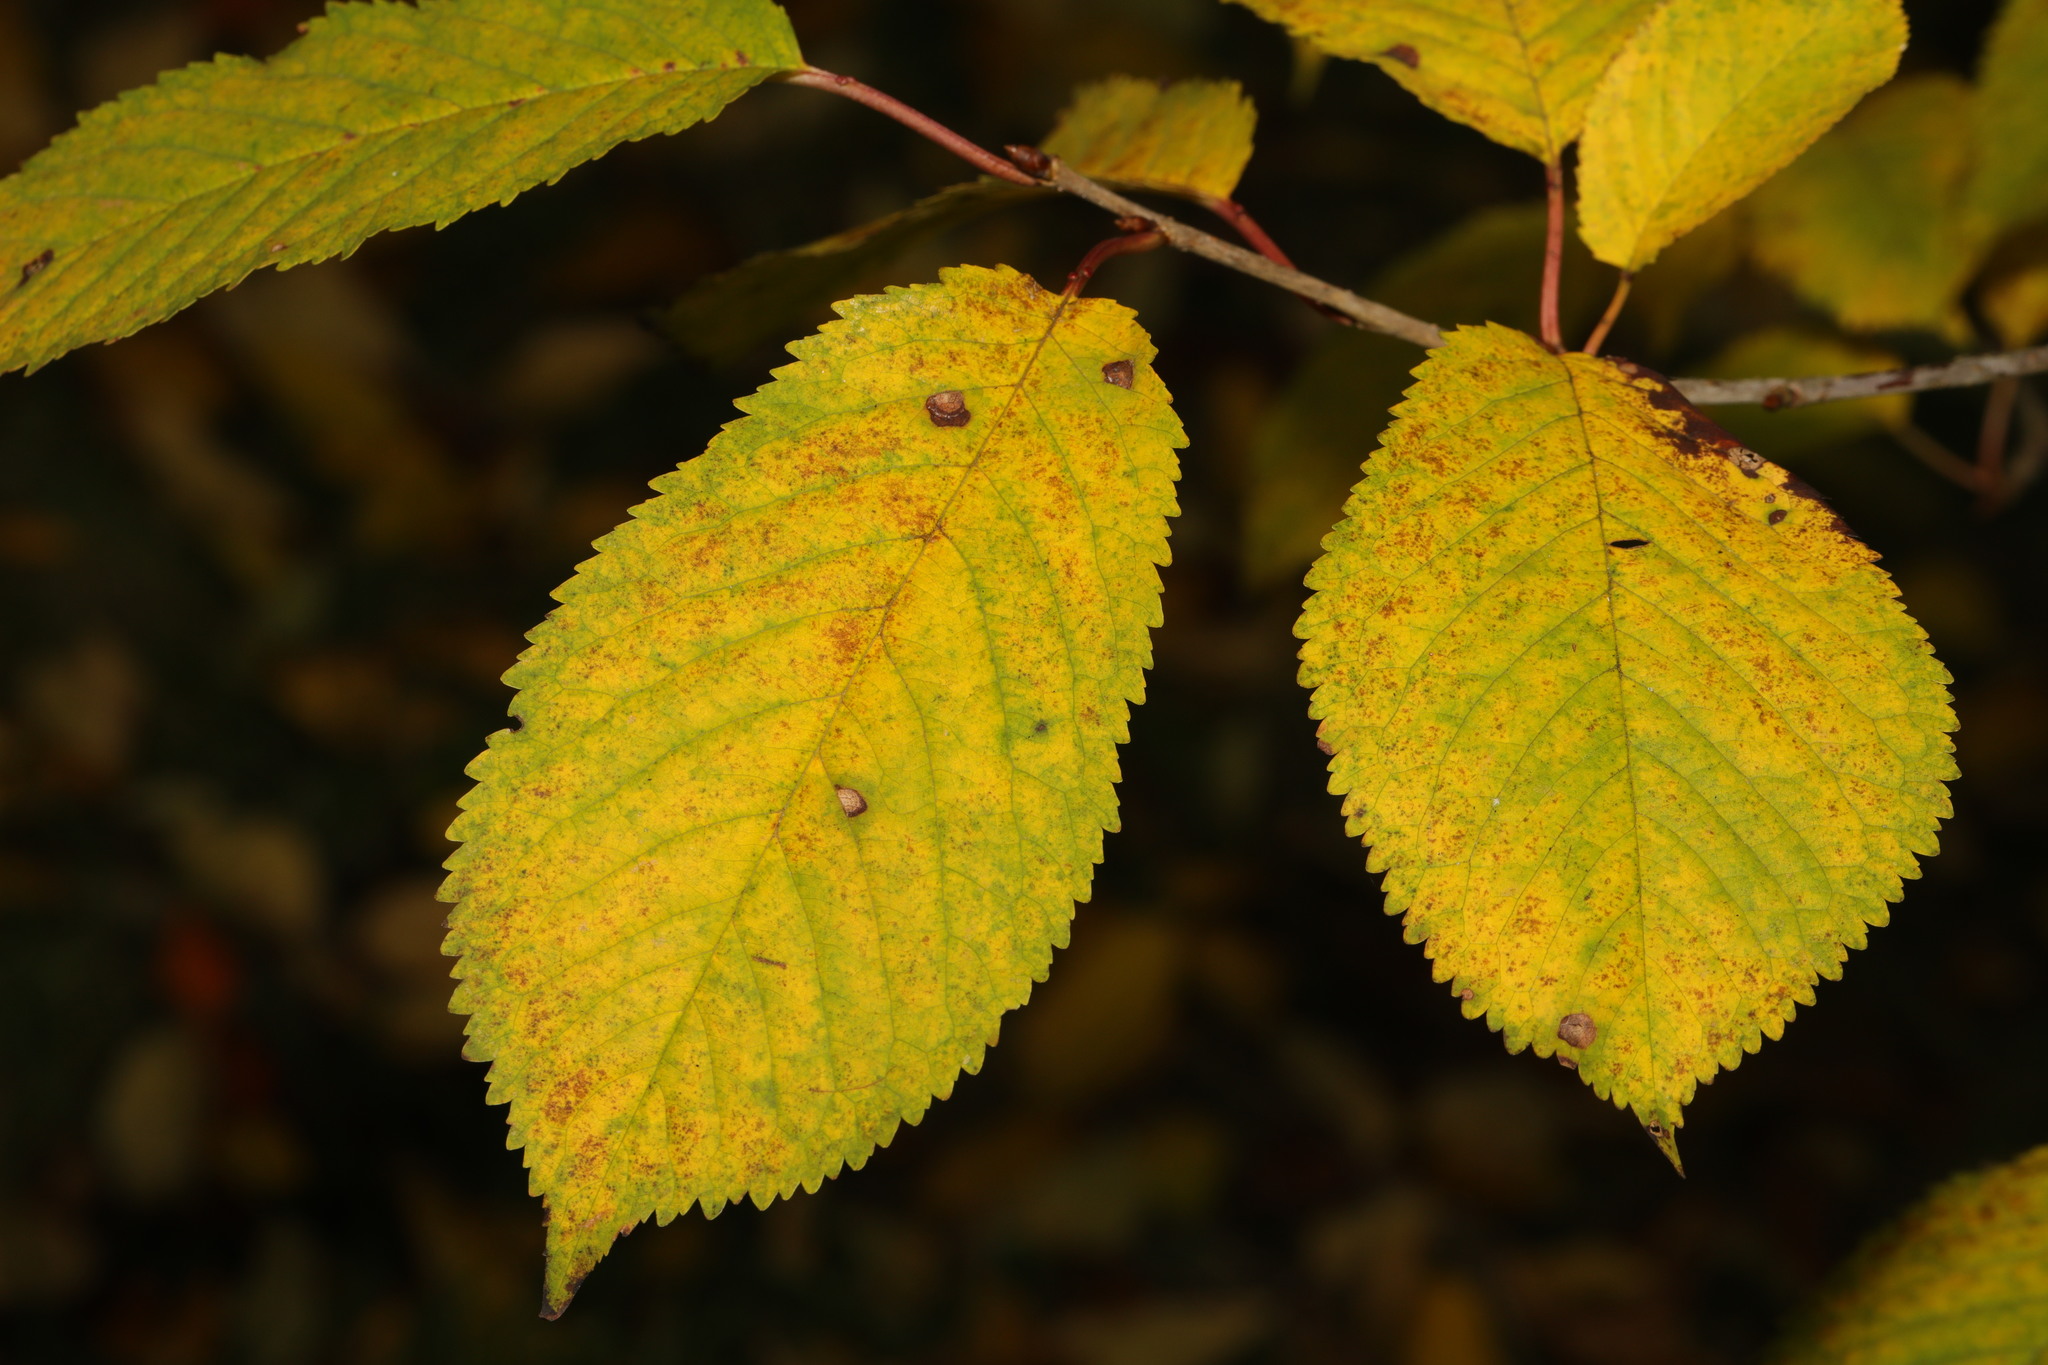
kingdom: Plantae
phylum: Tracheophyta
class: Magnoliopsida
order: Rosales
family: Rosaceae
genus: Prunus
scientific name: Prunus avium
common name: Sweet cherry
